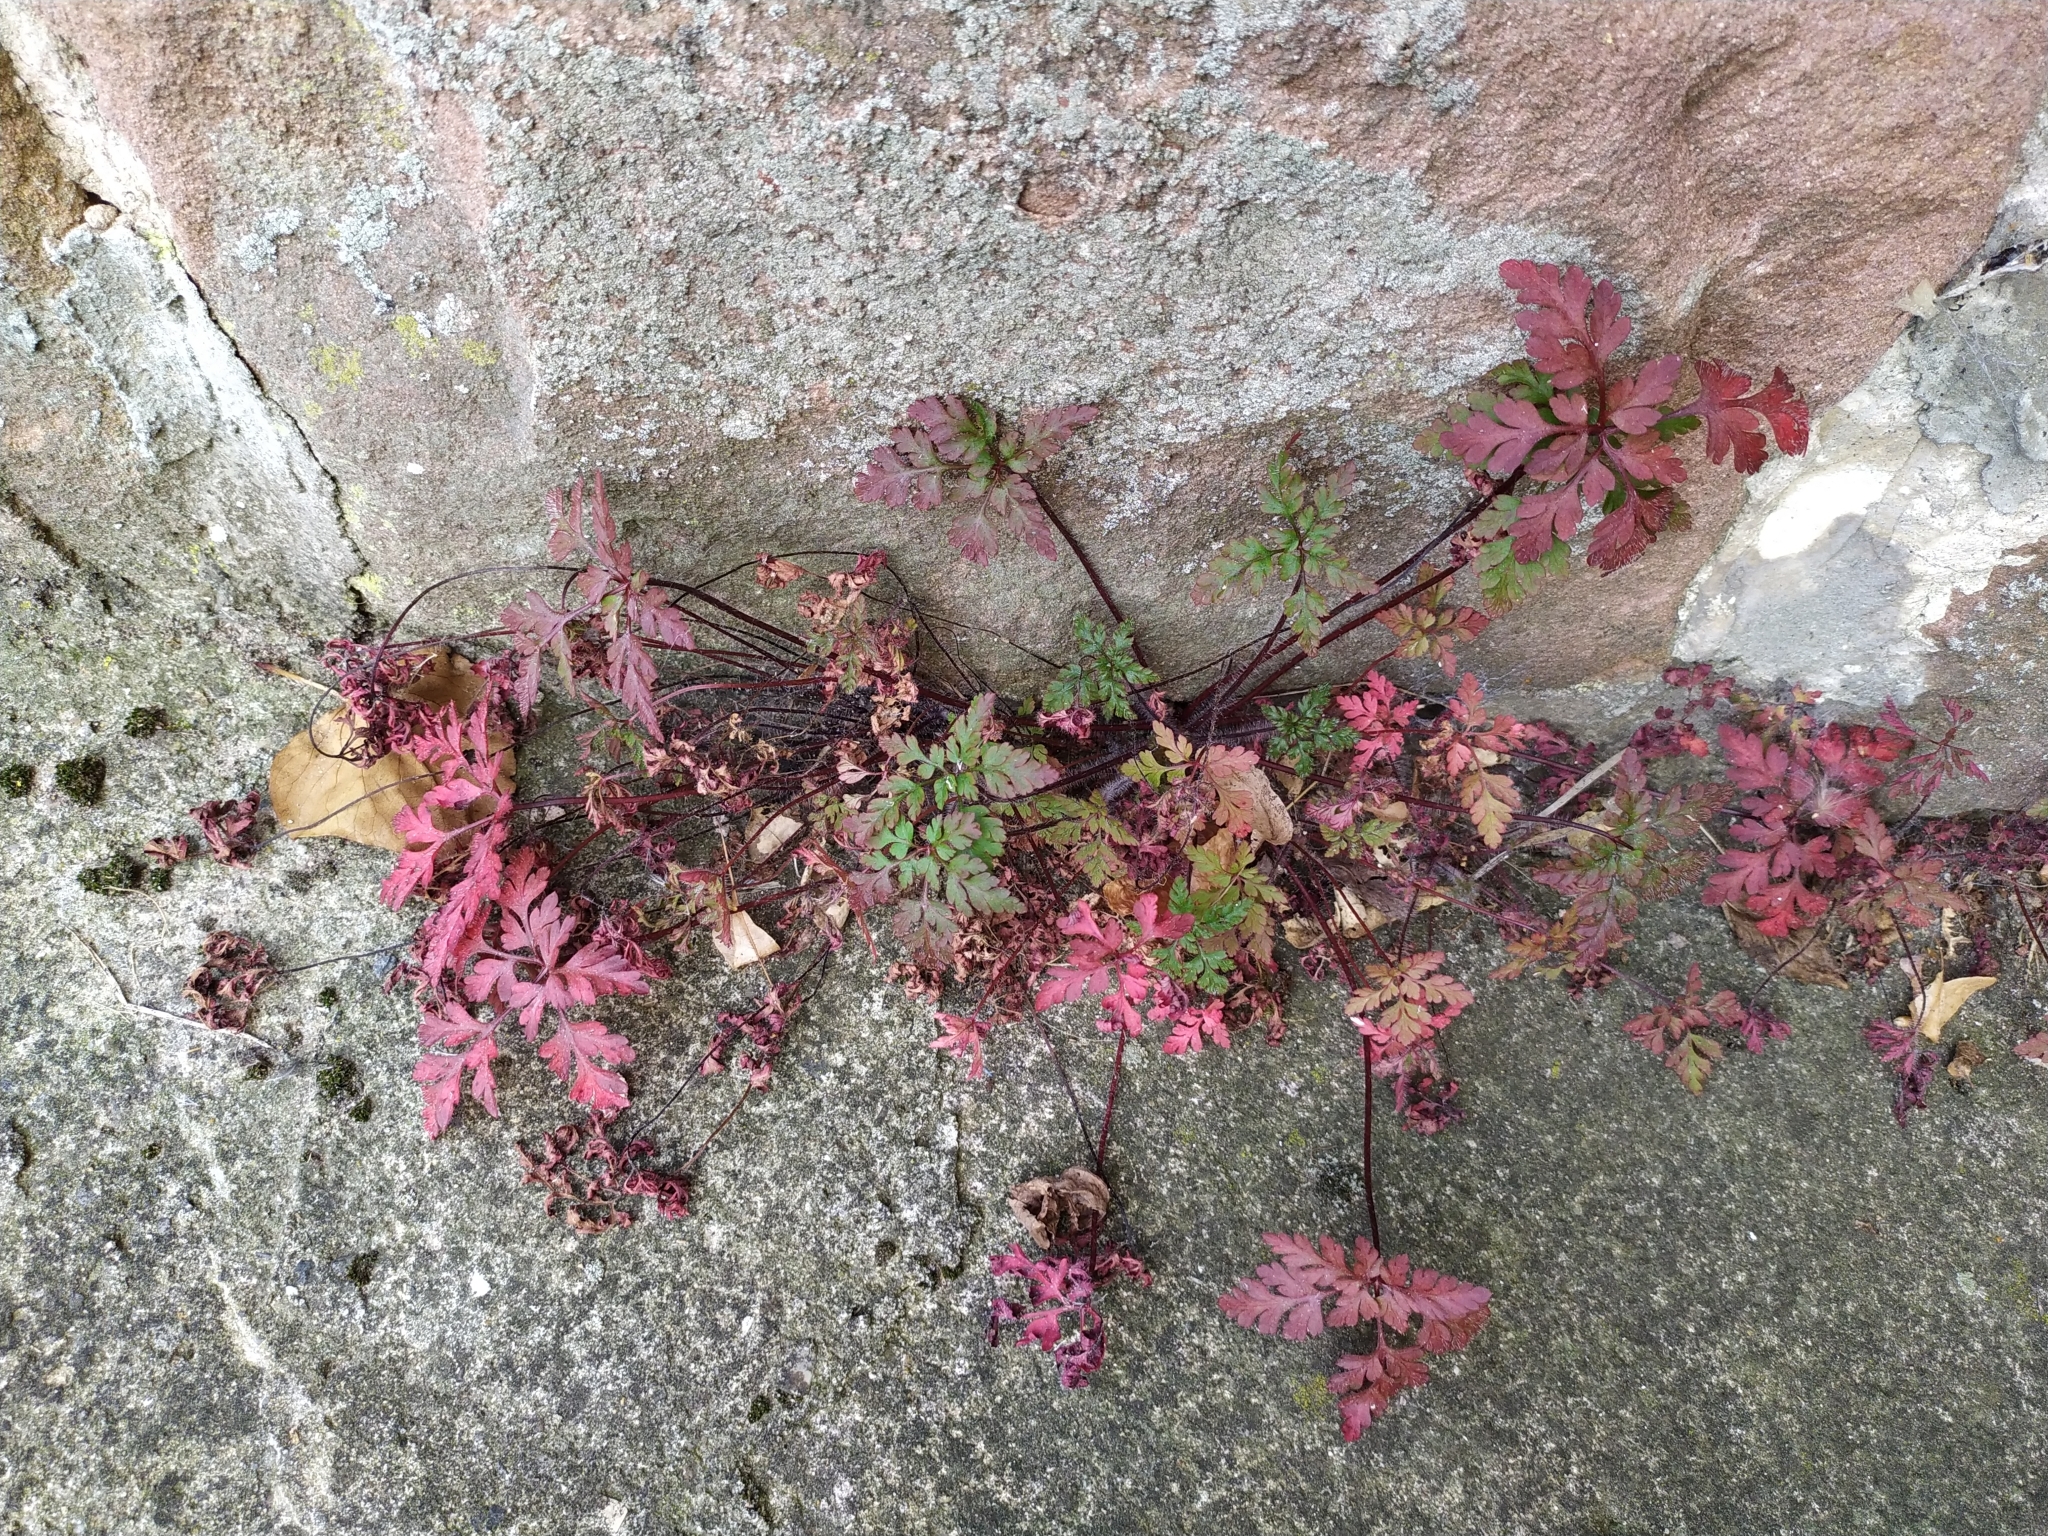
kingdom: Plantae
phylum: Tracheophyta
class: Magnoliopsida
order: Geraniales
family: Geraniaceae
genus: Geranium
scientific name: Geranium robertianum
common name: Herb-robert
